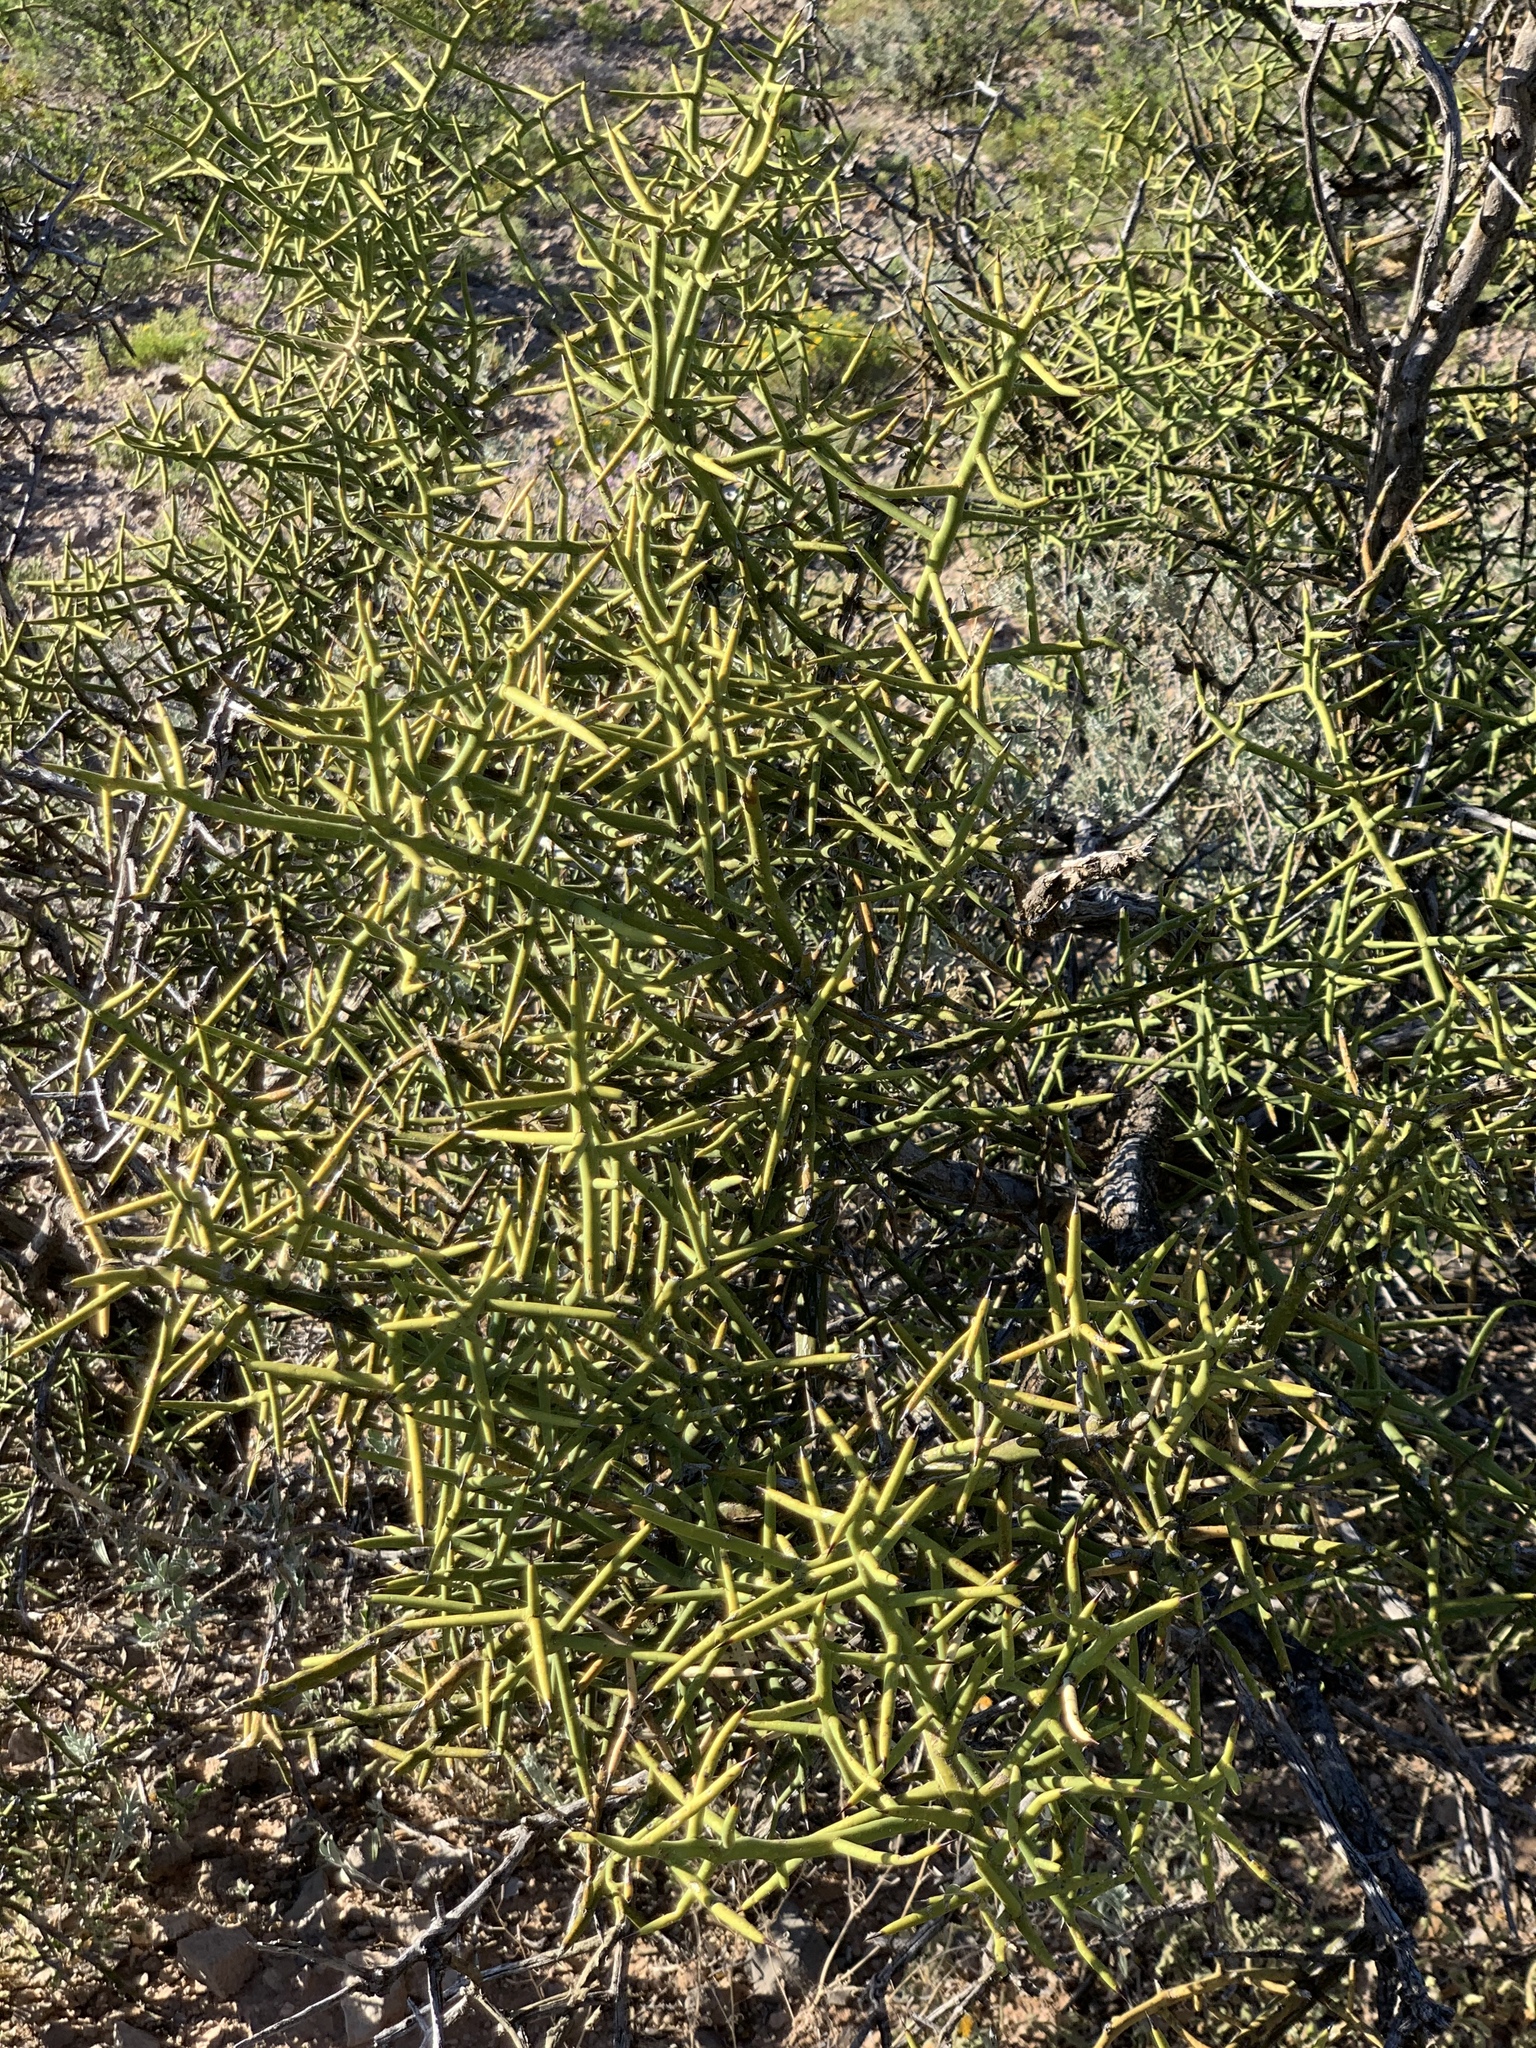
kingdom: Plantae
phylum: Tracheophyta
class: Magnoliopsida
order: Brassicales
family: Koeberliniaceae
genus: Koeberlinia
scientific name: Koeberlinia spinosa
